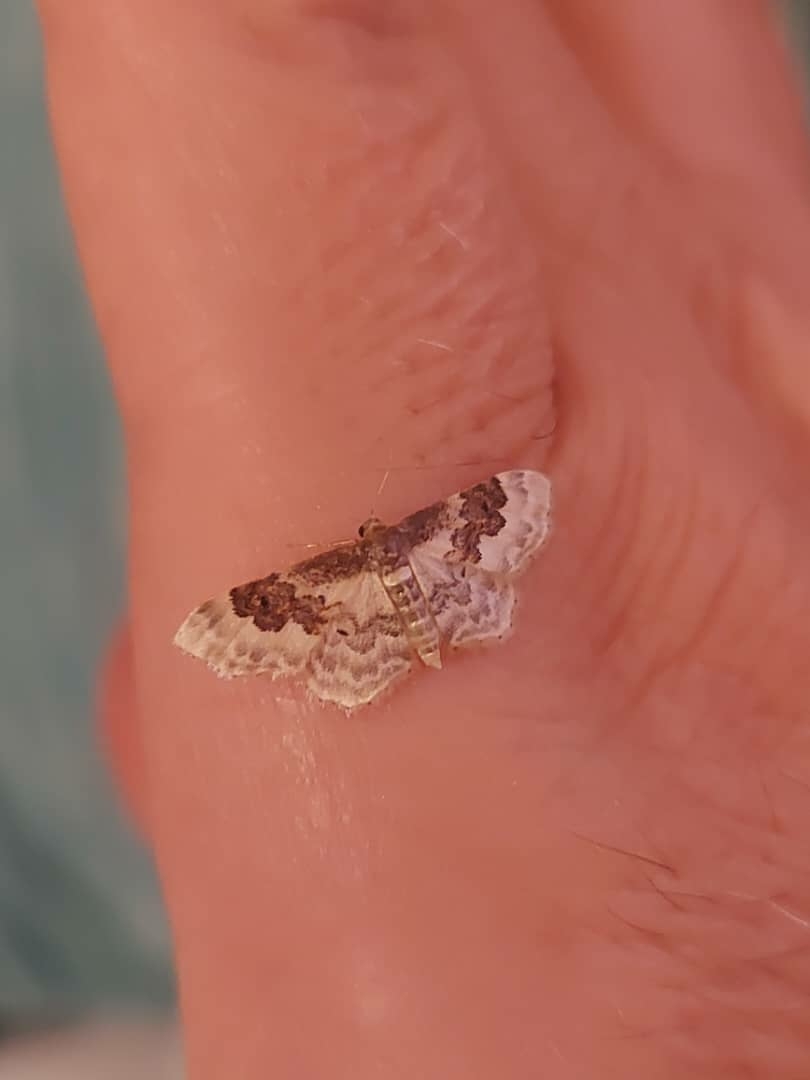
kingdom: Animalia
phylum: Arthropoda
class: Insecta
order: Lepidoptera
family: Geometridae
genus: Idaea
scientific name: Idaea rusticata
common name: Least carpet
